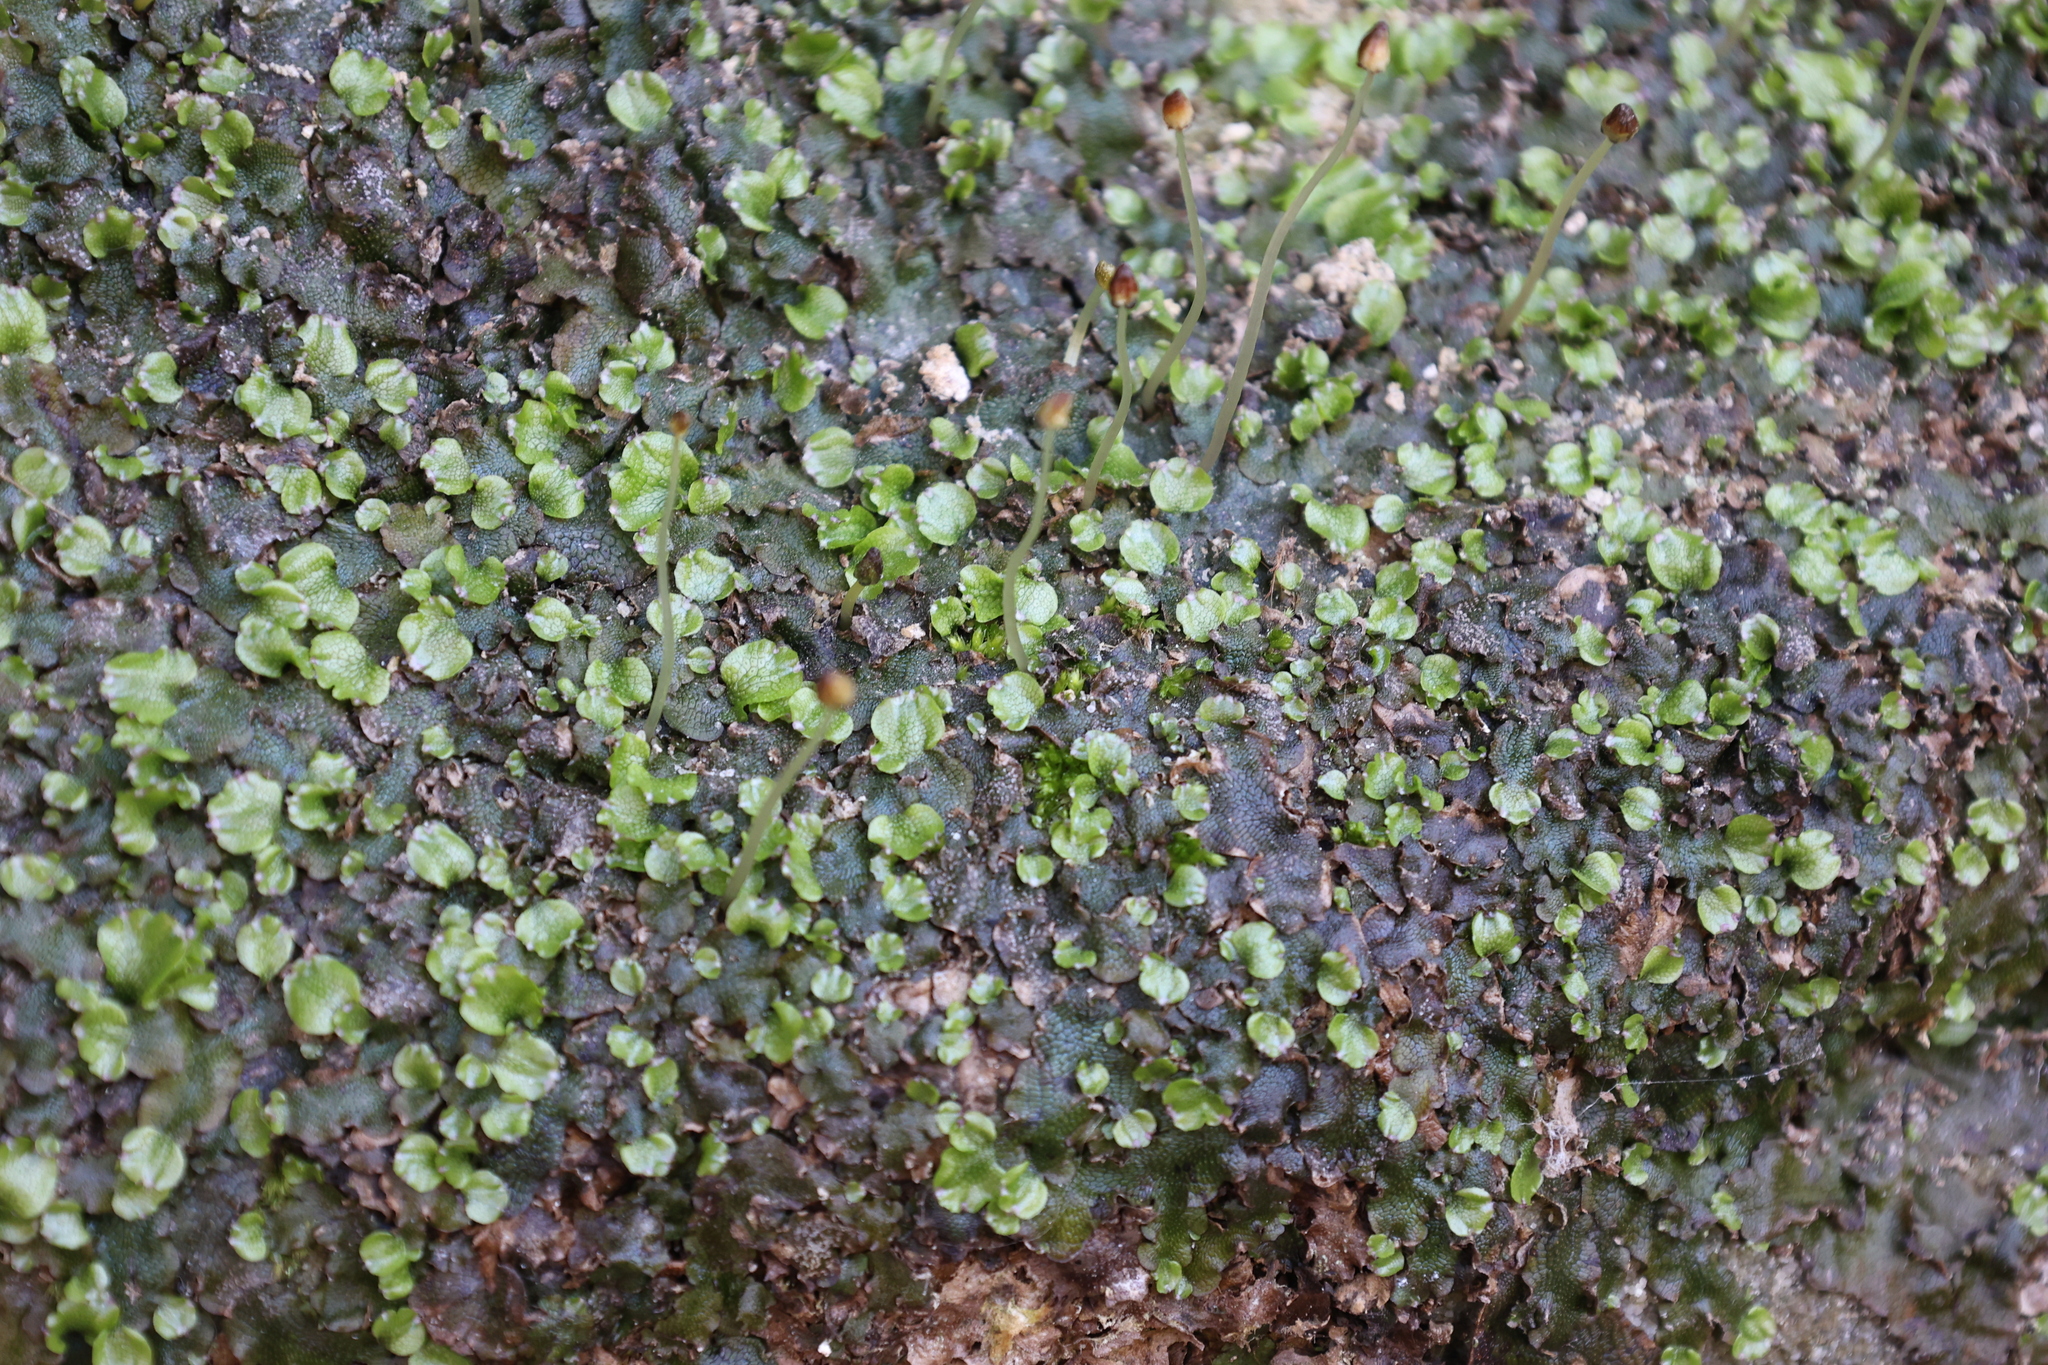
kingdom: Plantae
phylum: Marchantiophyta
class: Marchantiopsida
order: Marchantiales
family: Conocephalaceae
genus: Conocephalum
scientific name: Conocephalum salebrosum
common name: Cat-tongue liverwort
